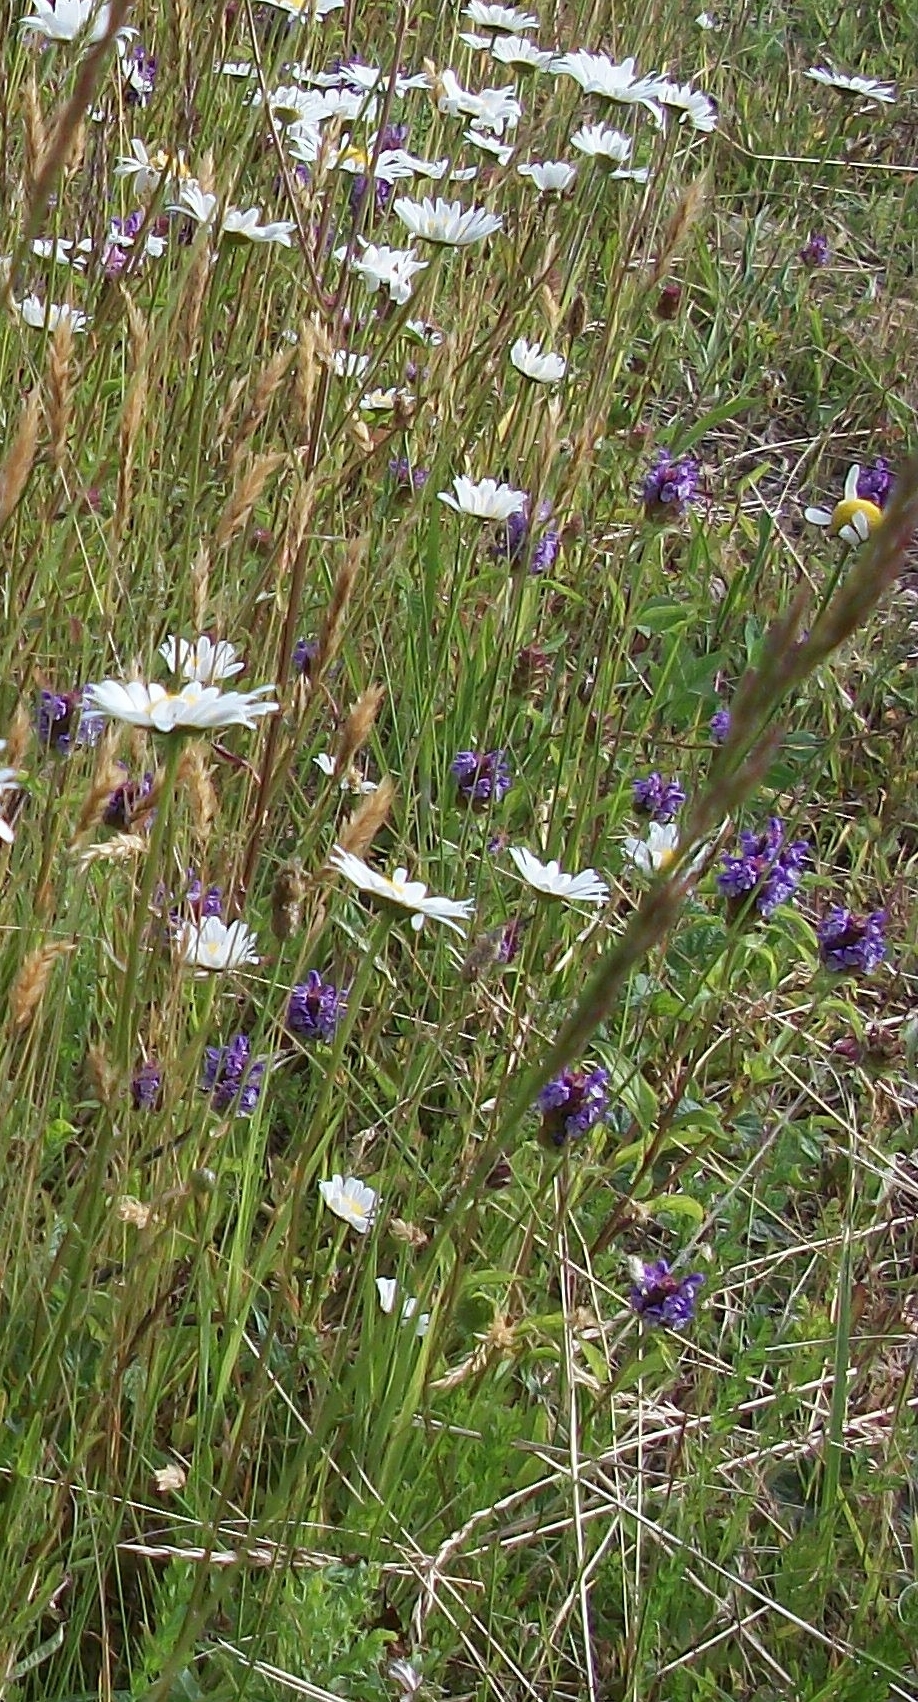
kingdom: Plantae
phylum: Tracheophyta
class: Magnoliopsida
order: Lamiales
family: Lamiaceae
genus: Prunella
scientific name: Prunella vulgaris
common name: Heal-all
